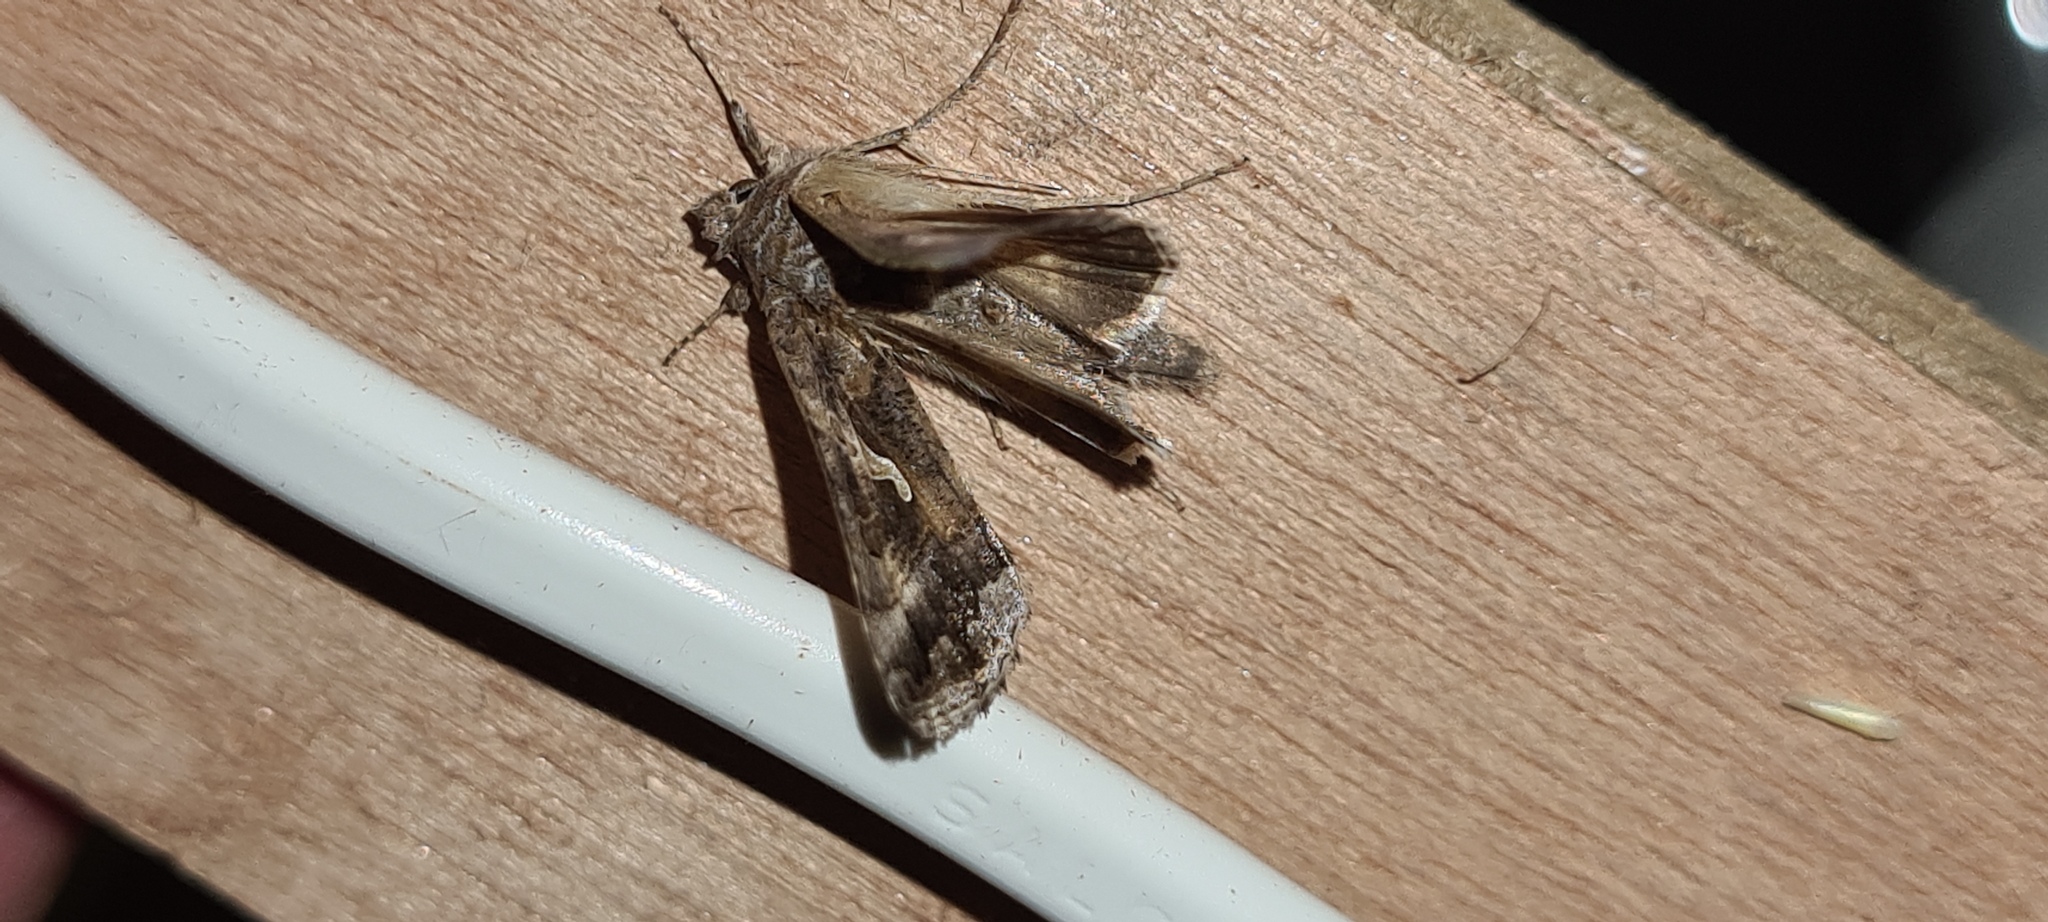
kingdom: Animalia
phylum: Arthropoda
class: Insecta
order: Lepidoptera
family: Noctuidae
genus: Autographa
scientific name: Autographa gamma
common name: Silver y
